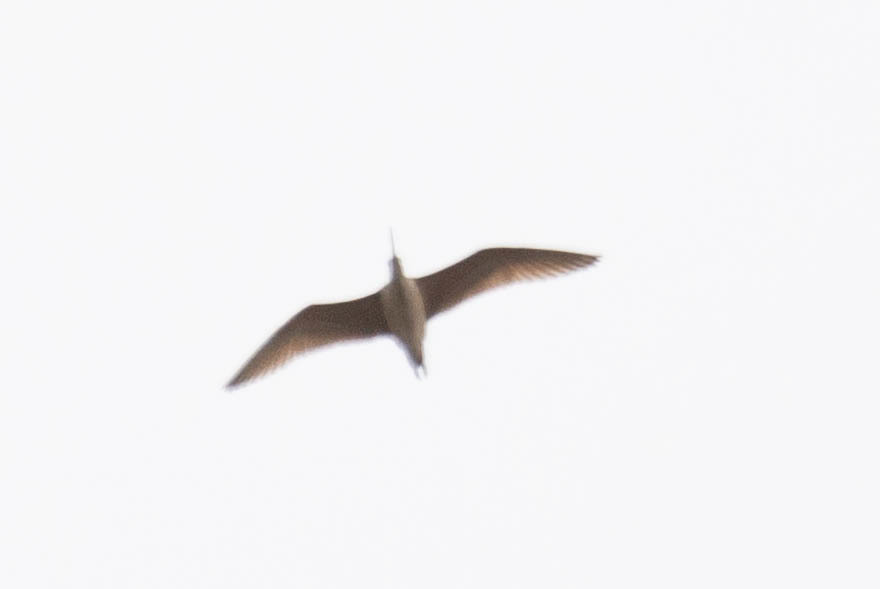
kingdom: Animalia
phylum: Chordata
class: Aves
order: Charadriiformes
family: Scolopacidae
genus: Numenius
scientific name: Numenius americanus
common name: Long-billed curlew
